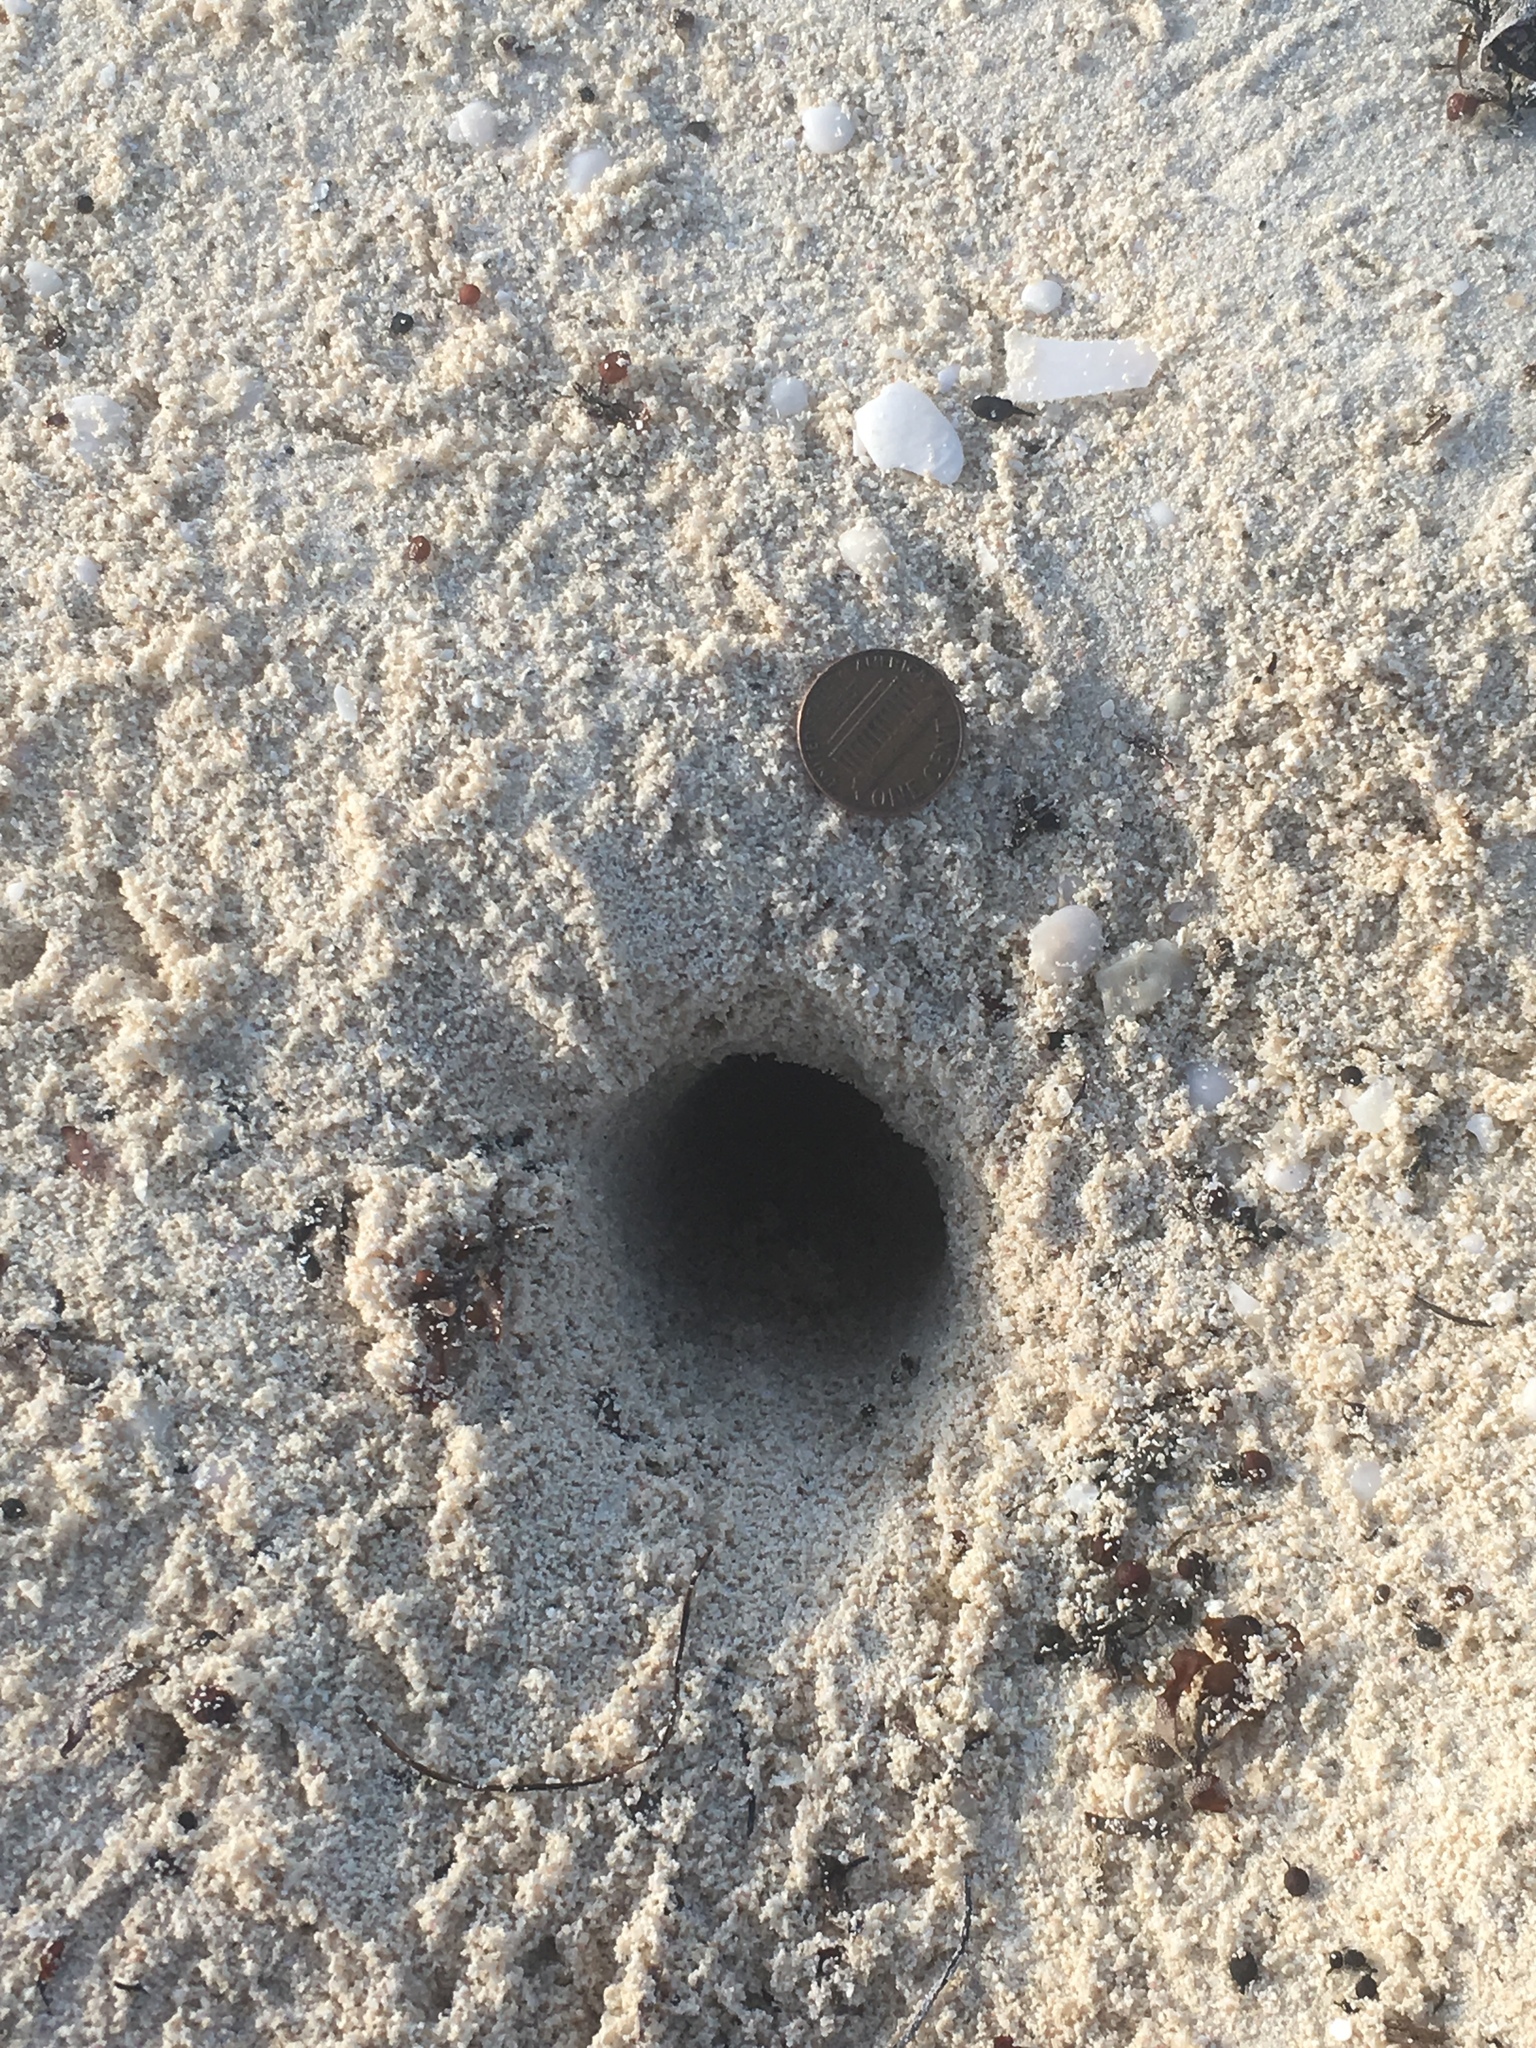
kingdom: Animalia
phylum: Arthropoda
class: Malacostraca
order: Decapoda
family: Ocypodidae
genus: Ocypode
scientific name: Ocypode quadrata
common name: Ghost crab
